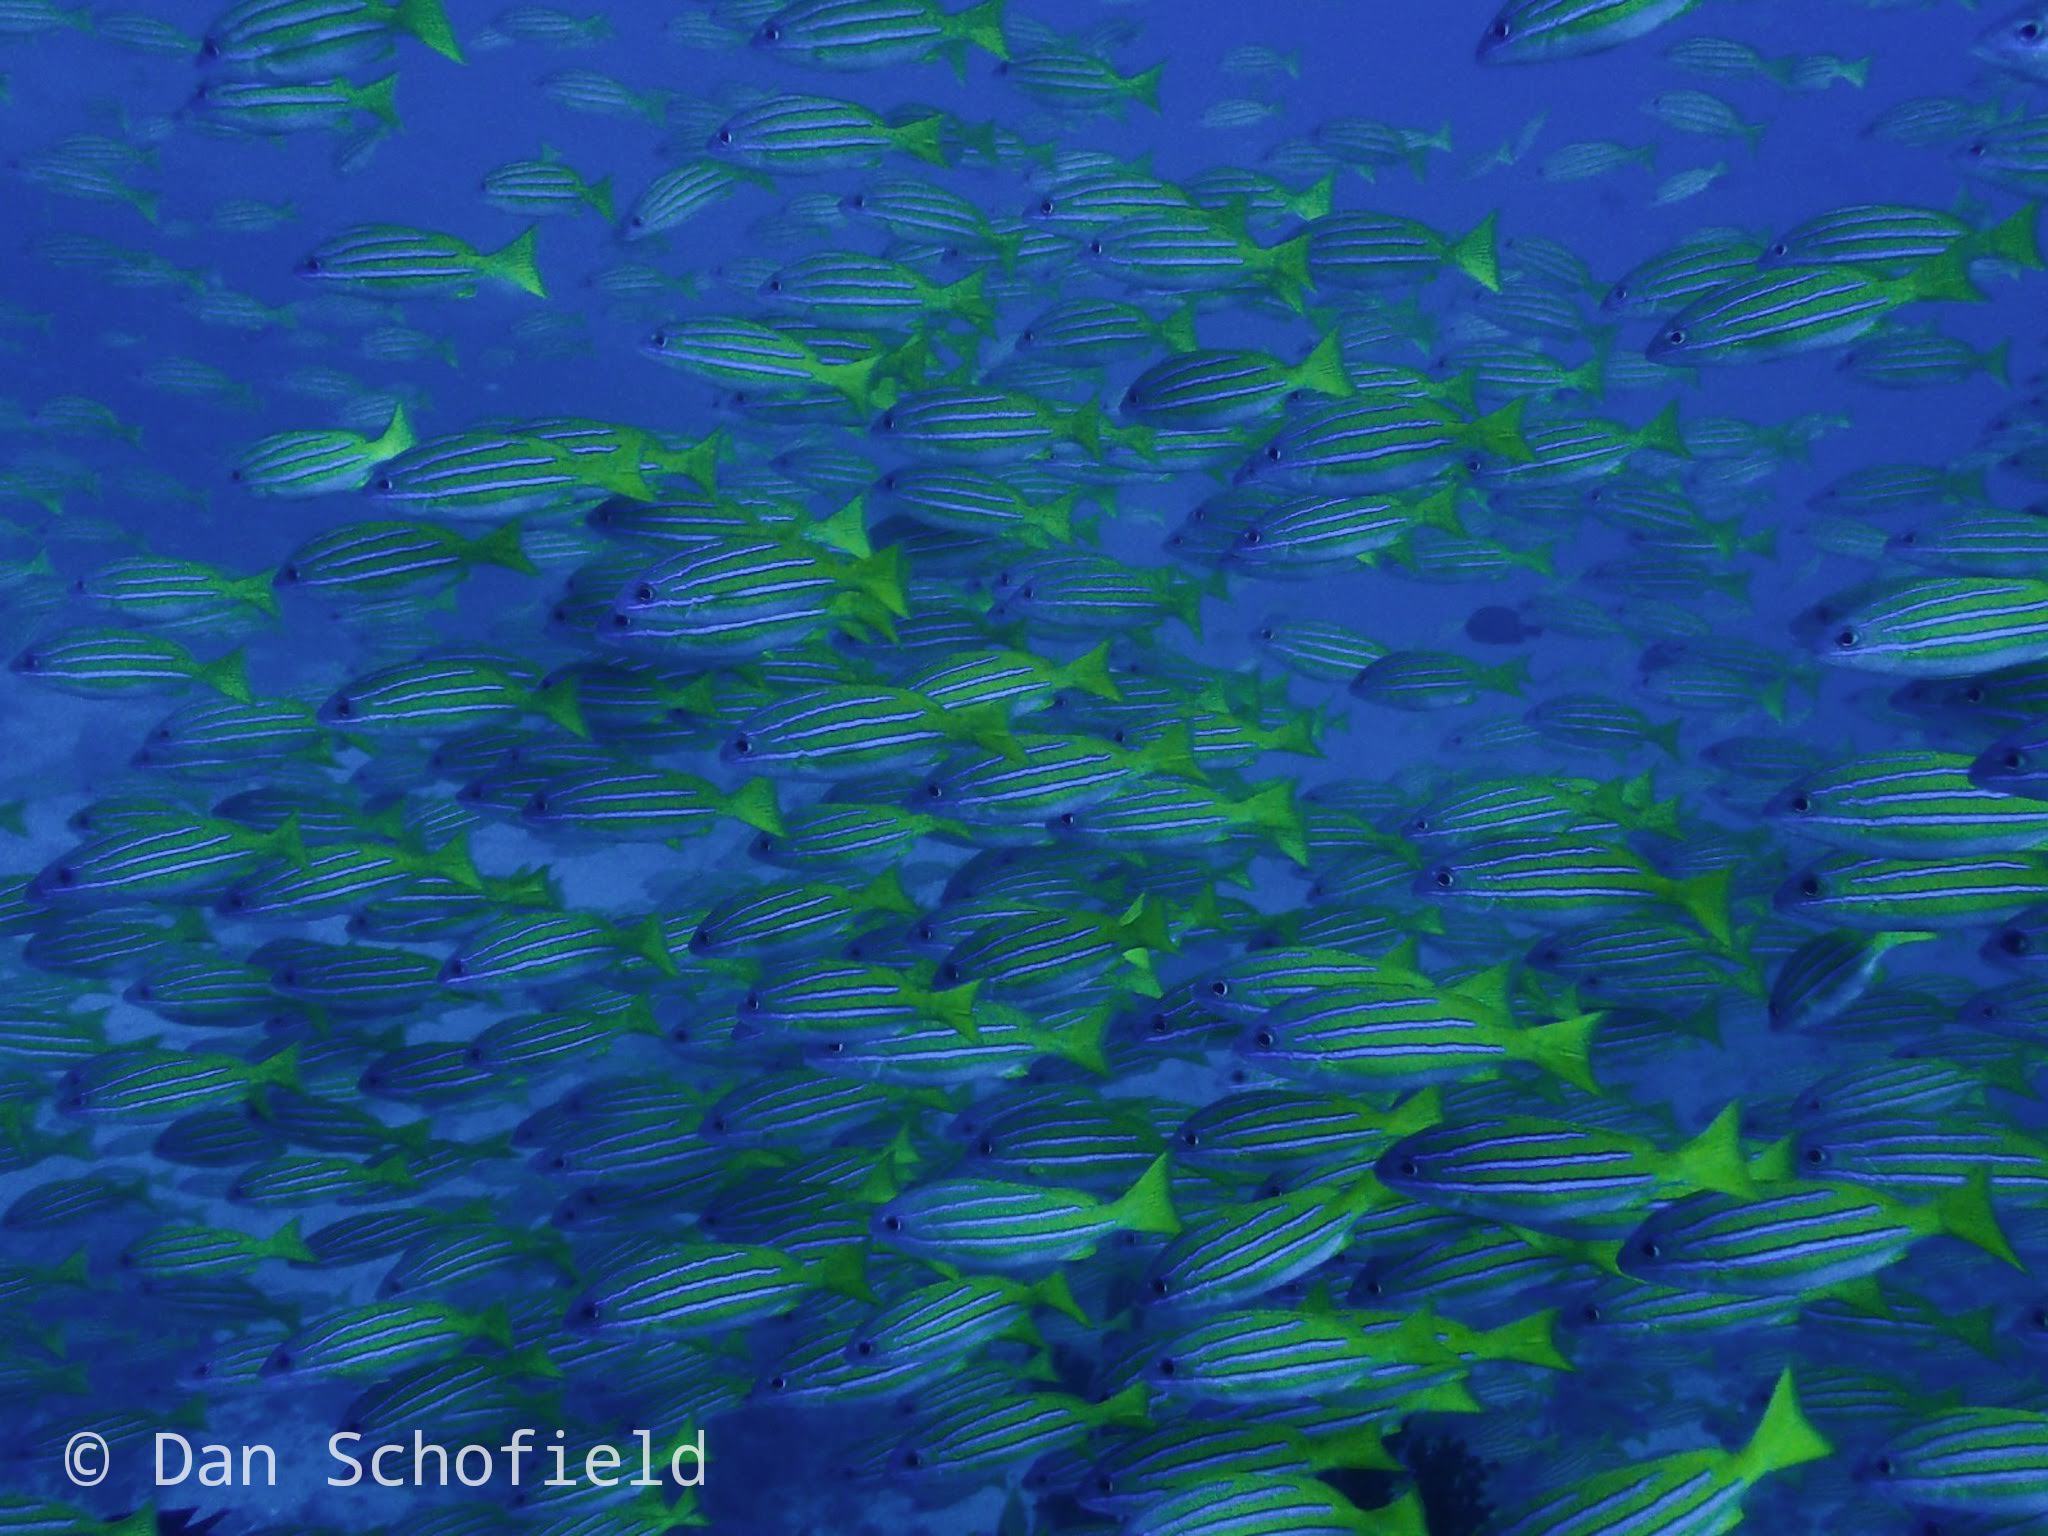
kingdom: Animalia
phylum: Chordata
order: Perciformes
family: Lutjanidae
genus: Lutjanus
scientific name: Lutjanus bengalensis
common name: Bengal snapper
